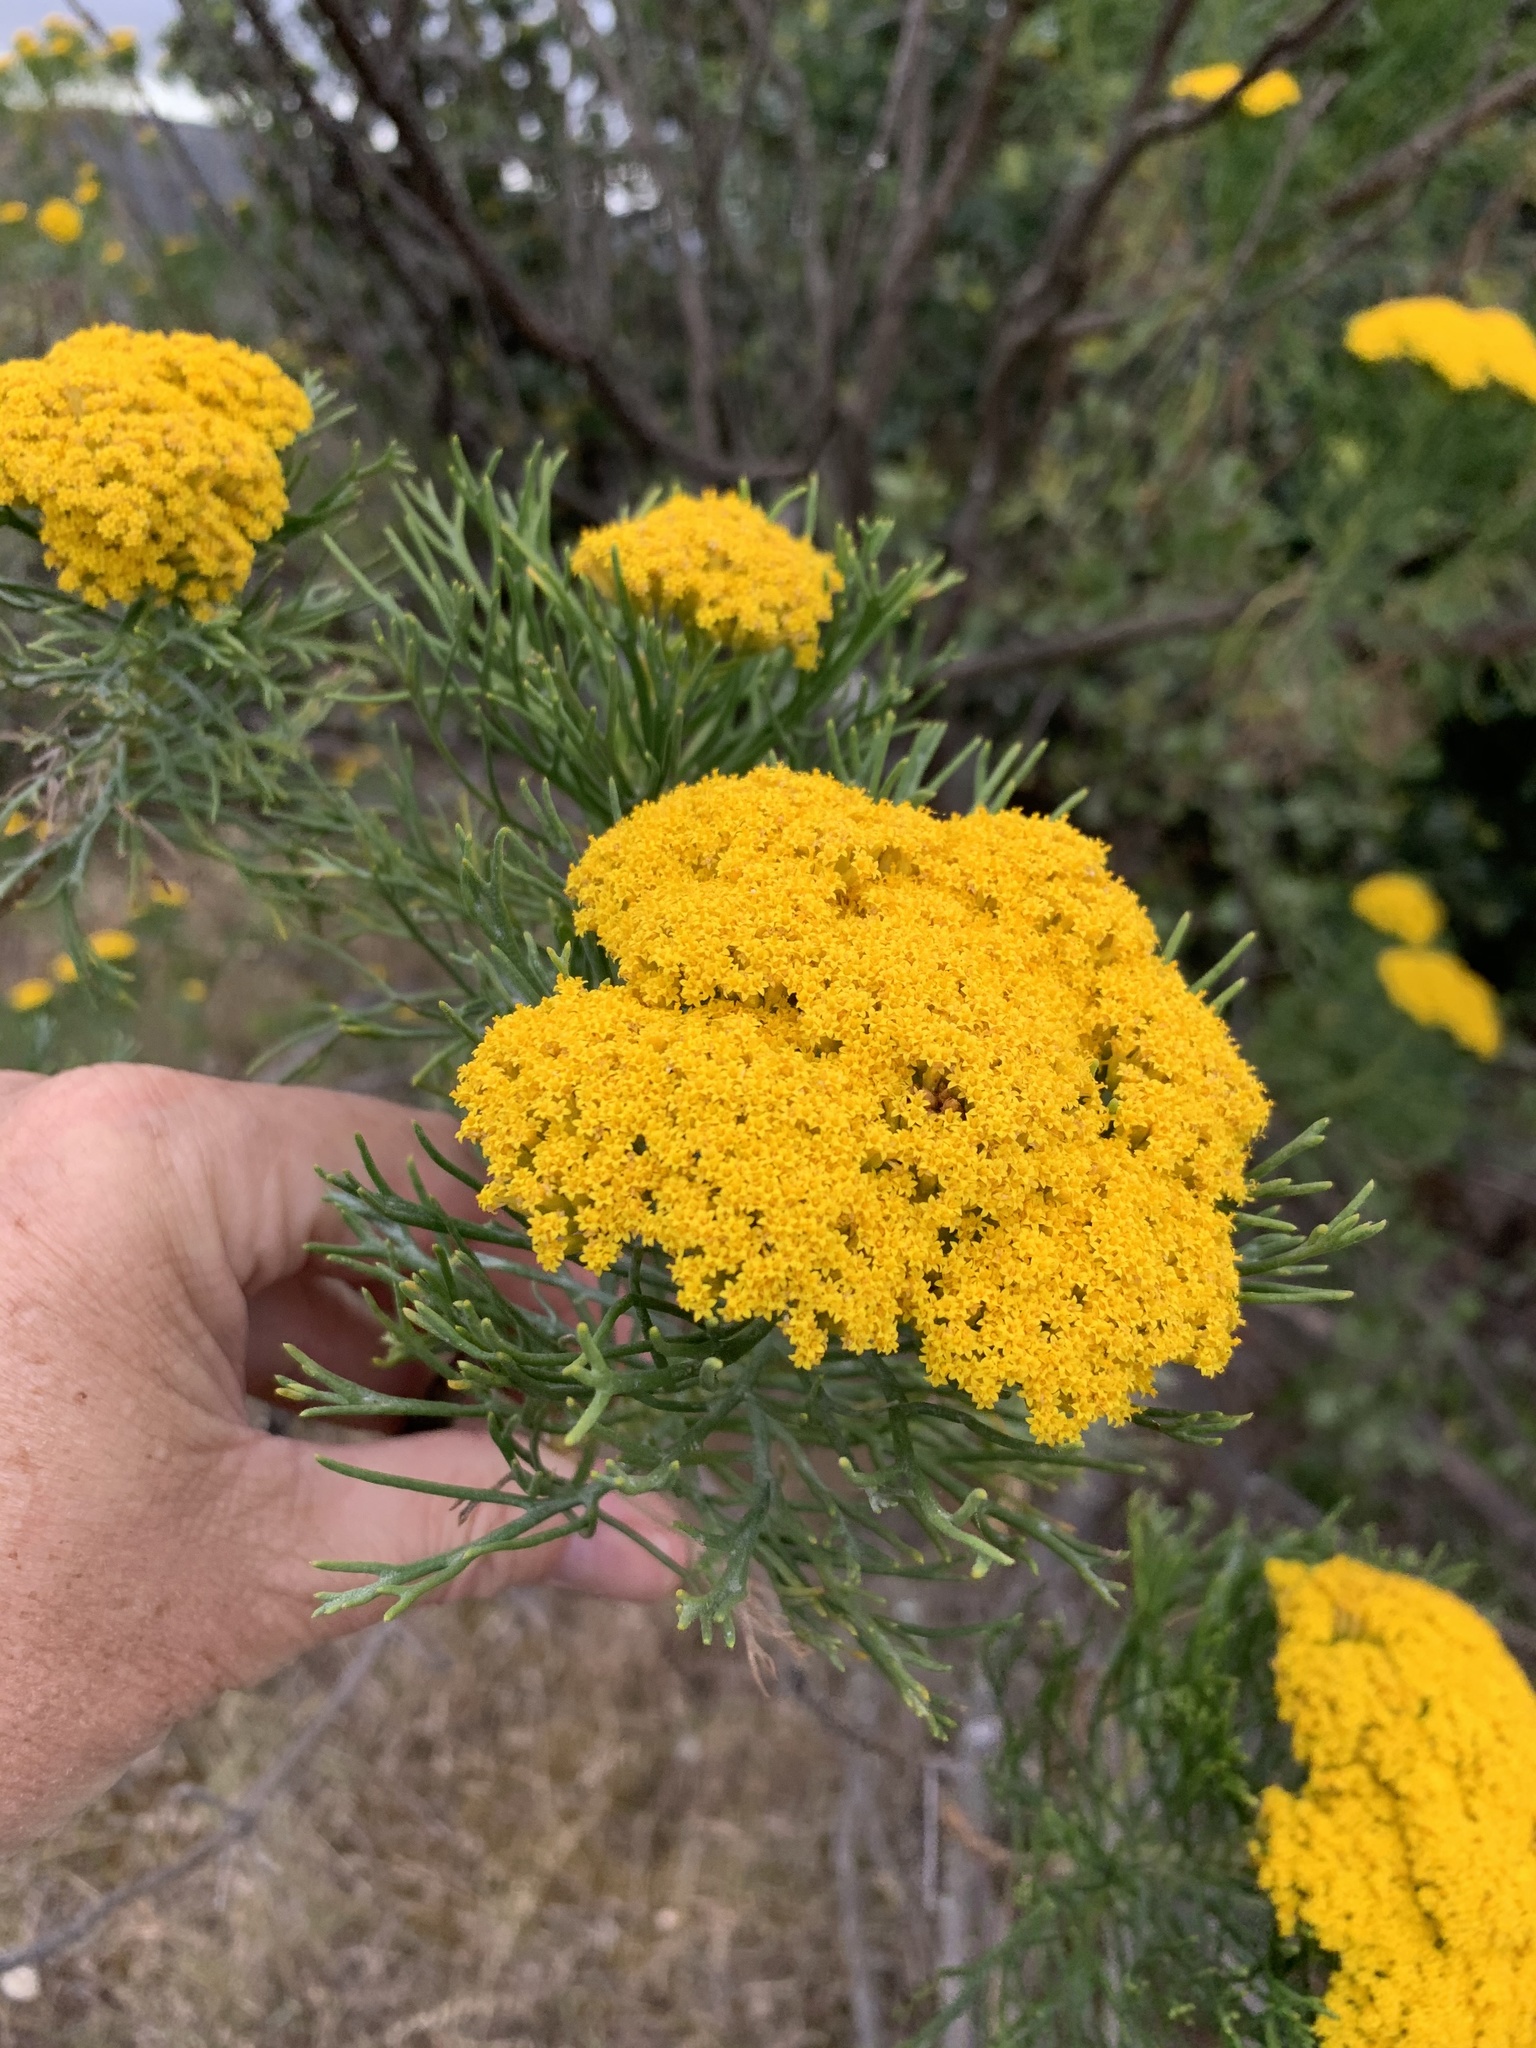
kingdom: Plantae
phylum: Tracheophyta
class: Magnoliopsida
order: Asterales
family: Asteraceae
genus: Hymenolepis
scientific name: Hymenolepis crithmifolia
